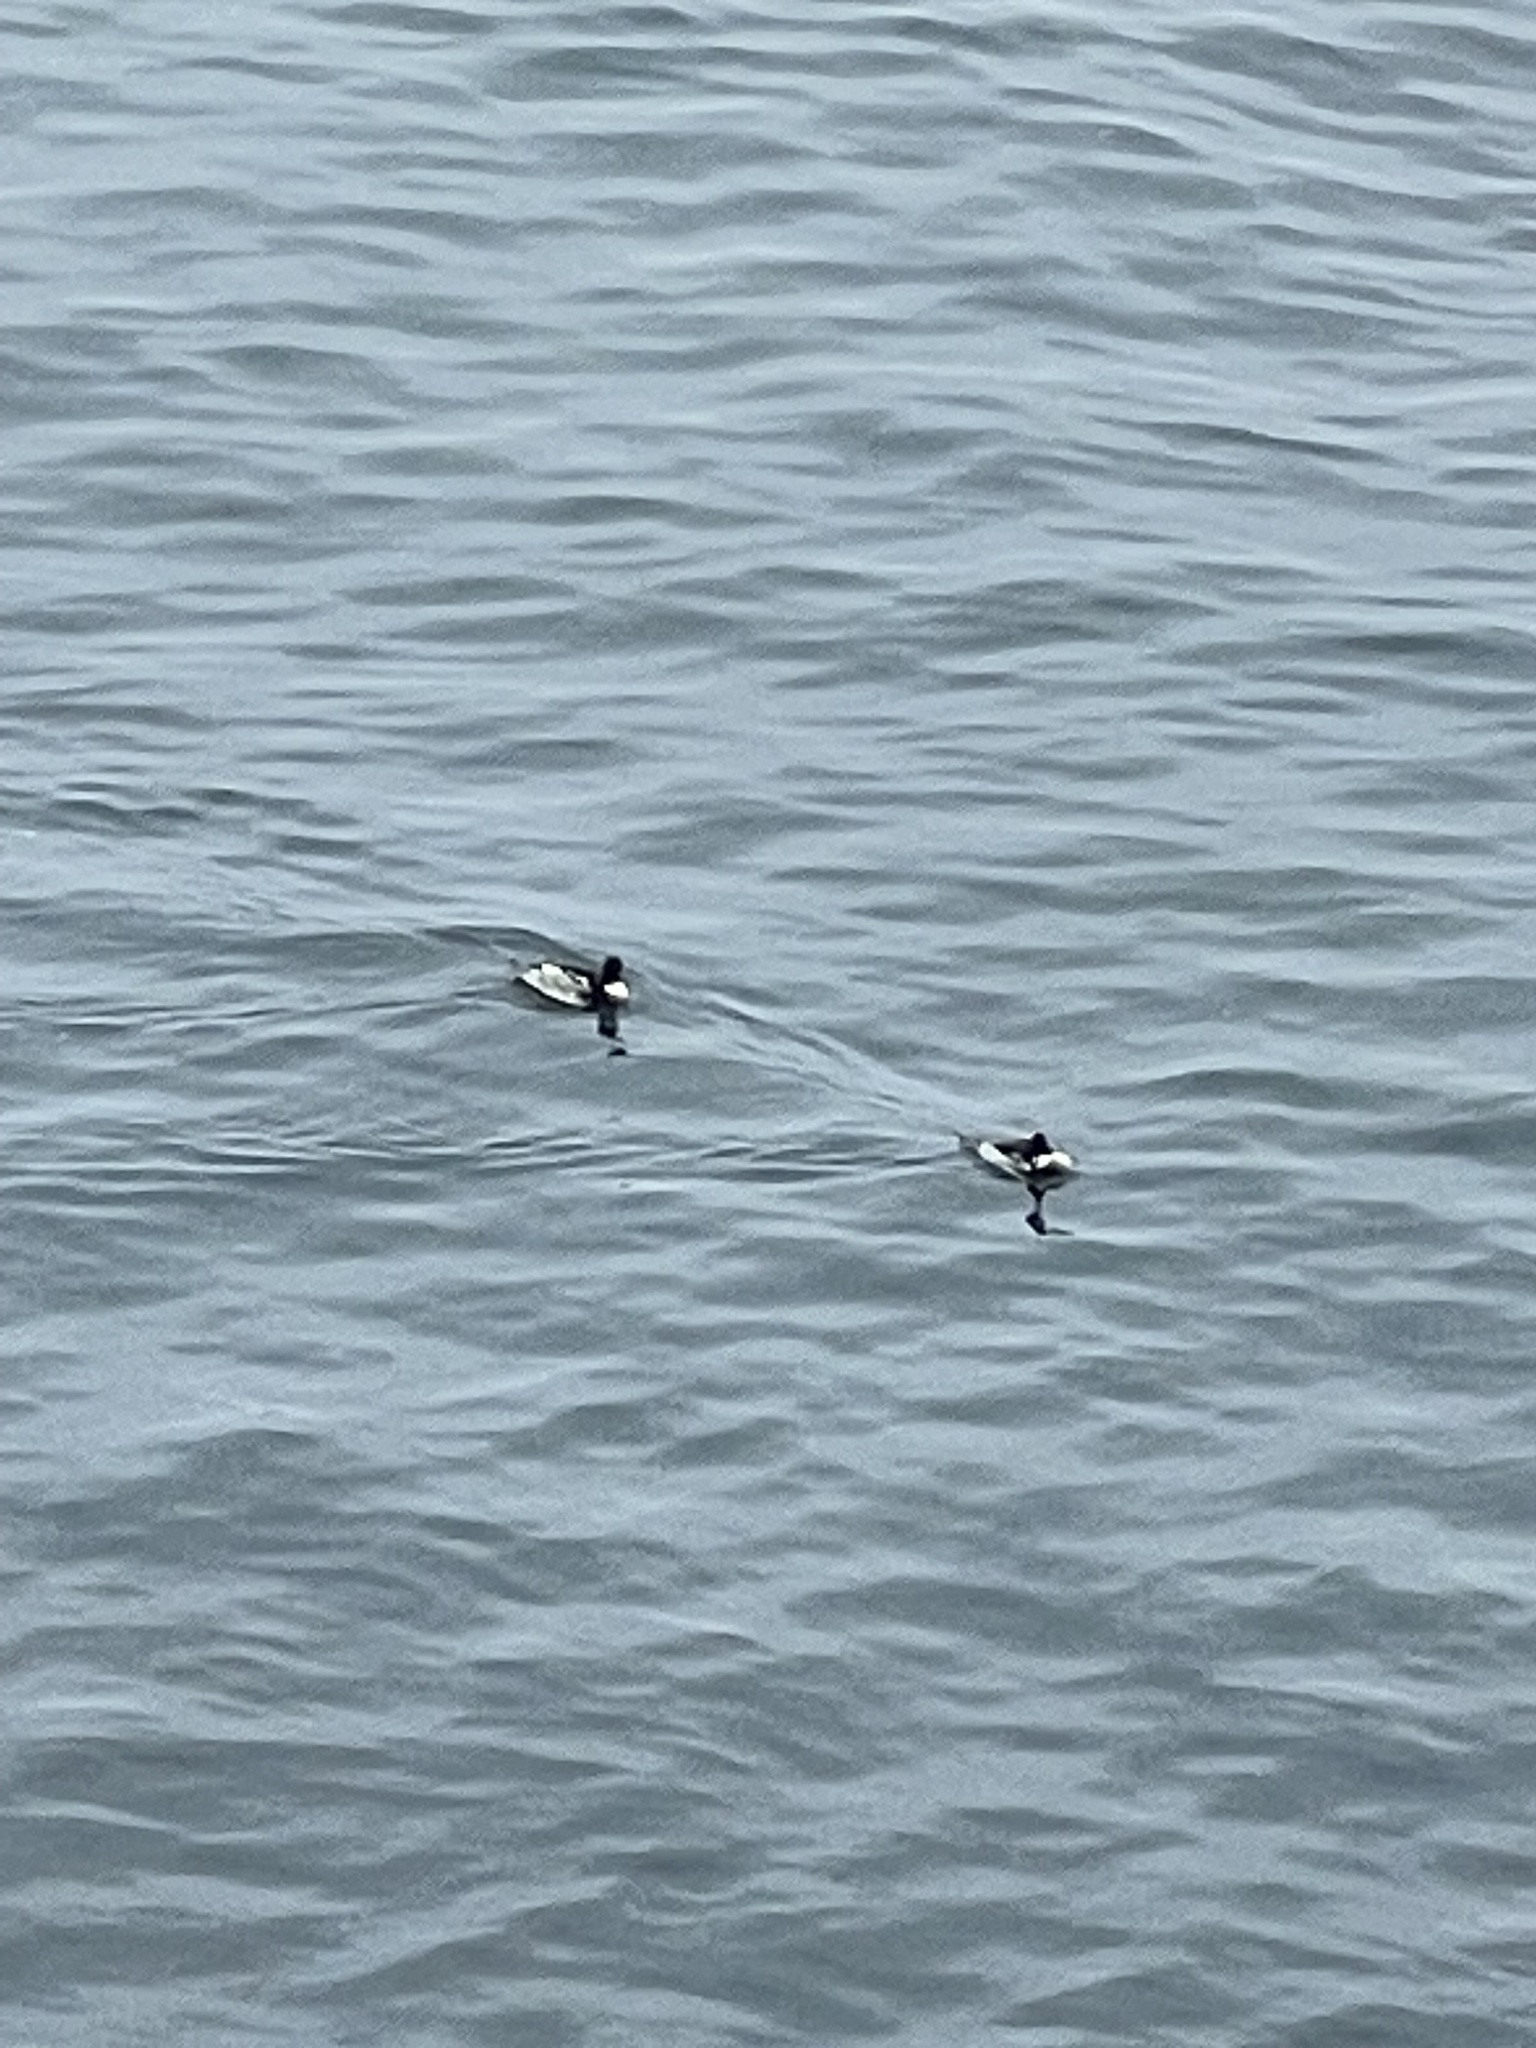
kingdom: Animalia
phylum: Chordata
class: Aves
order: Anseriformes
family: Anatidae
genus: Mergus
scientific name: Mergus serrator
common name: Red-breasted merganser
